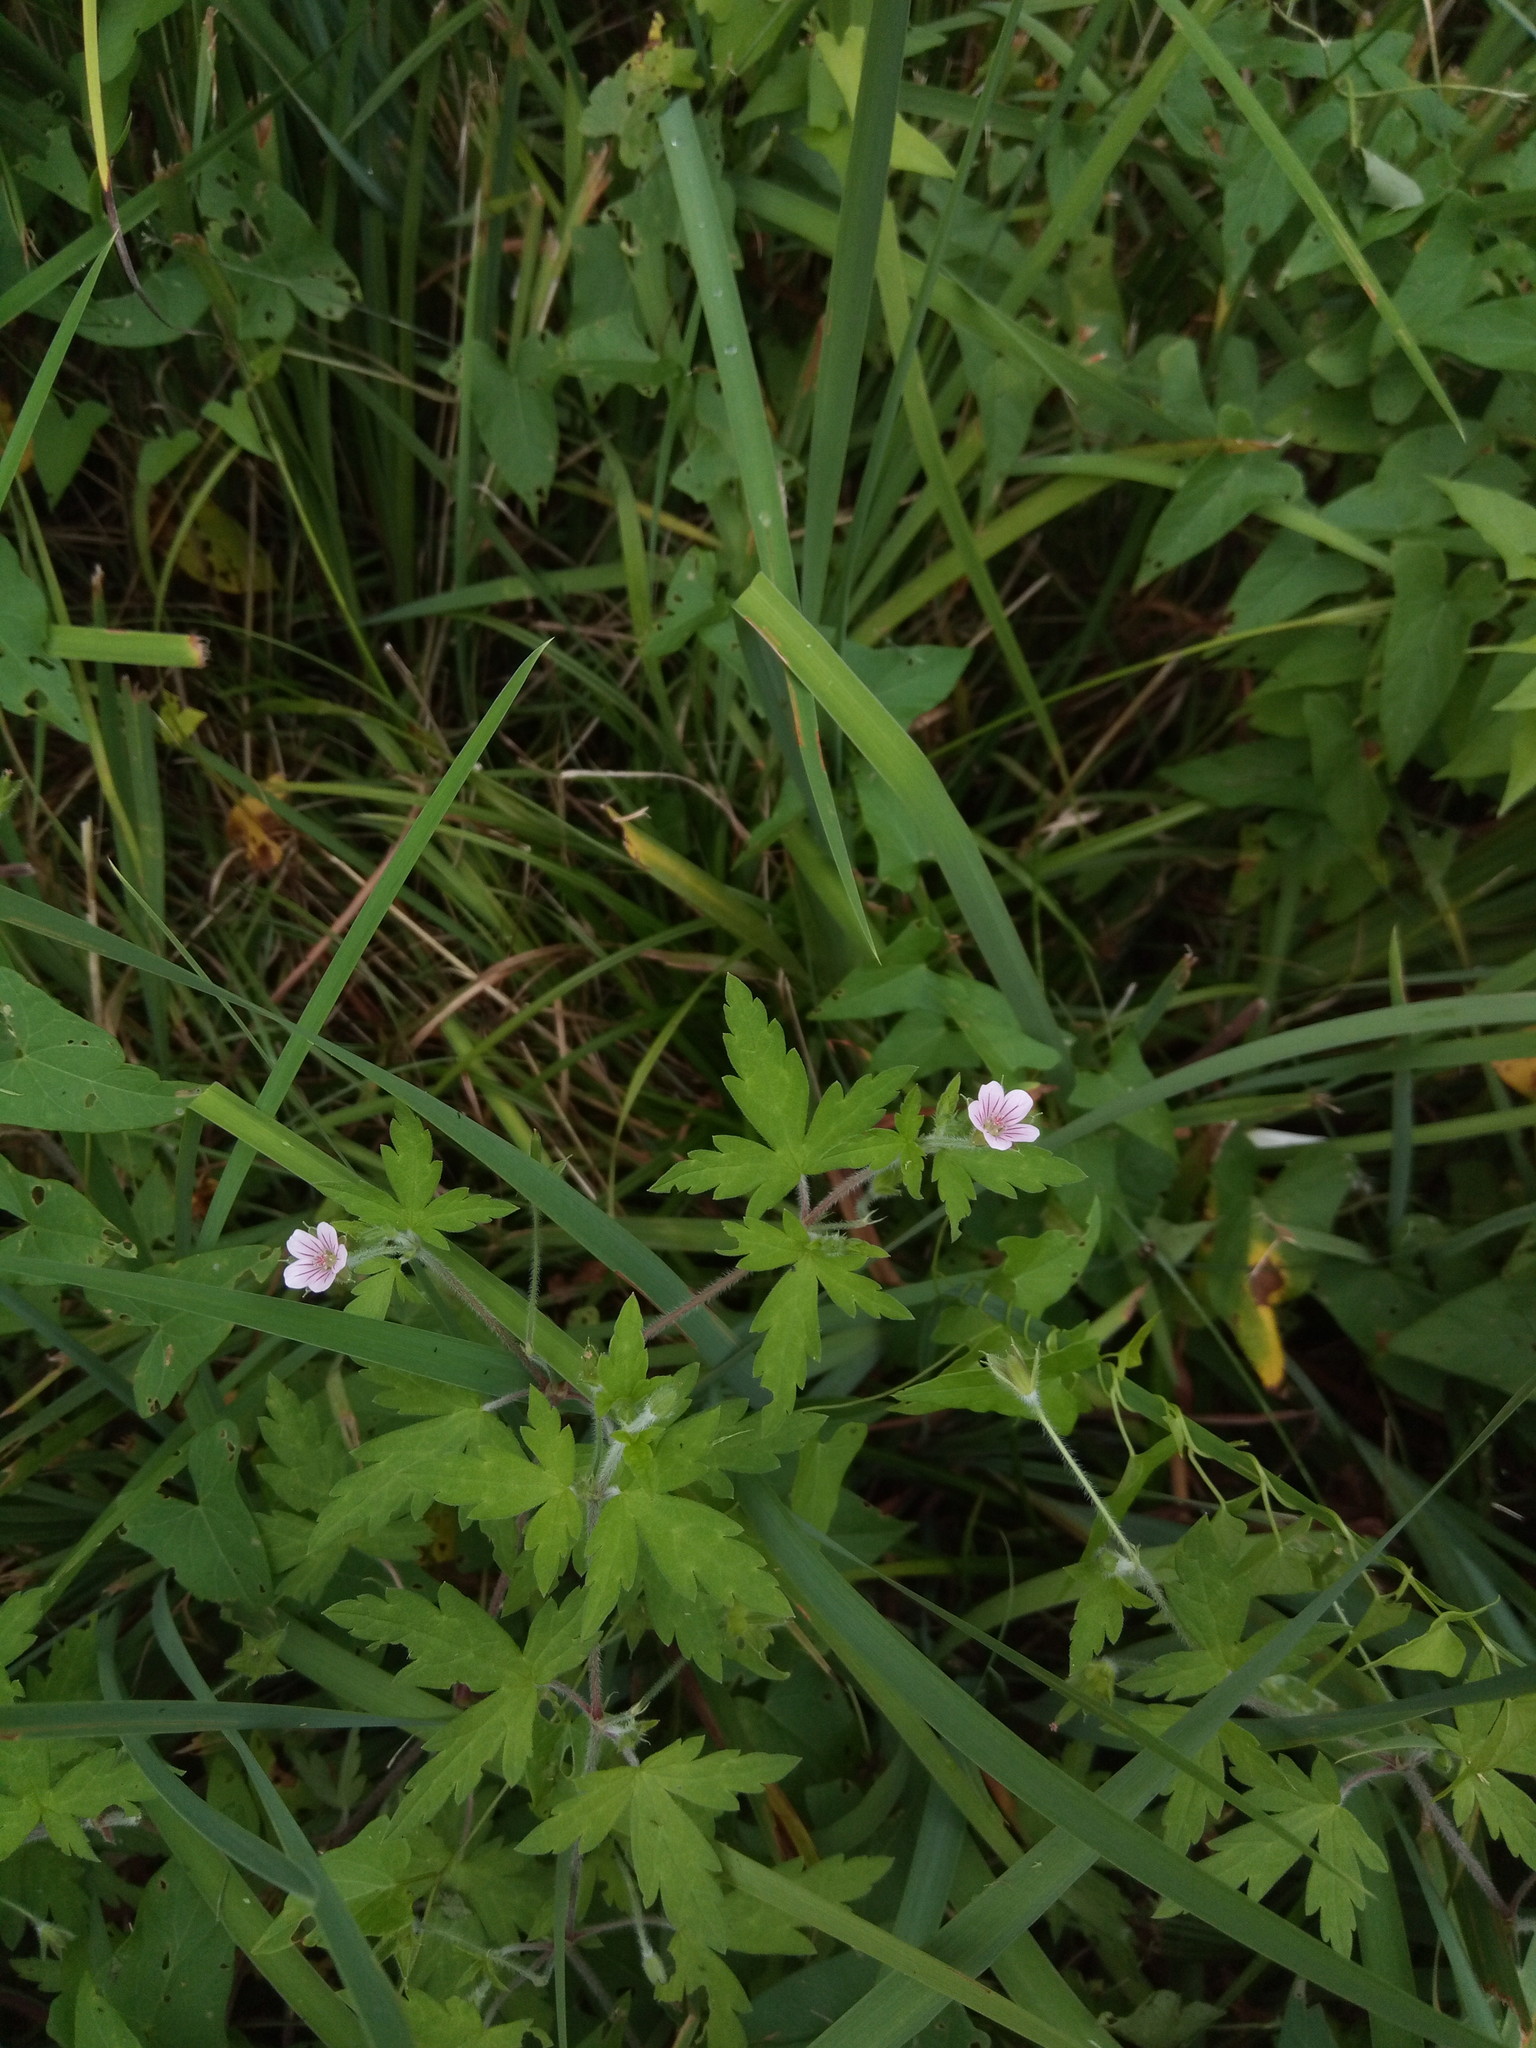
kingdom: Plantae
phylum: Tracheophyta
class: Magnoliopsida
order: Geraniales
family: Geraniaceae
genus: Geranium
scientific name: Geranium sibiricum
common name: Siberian crane's-bill
